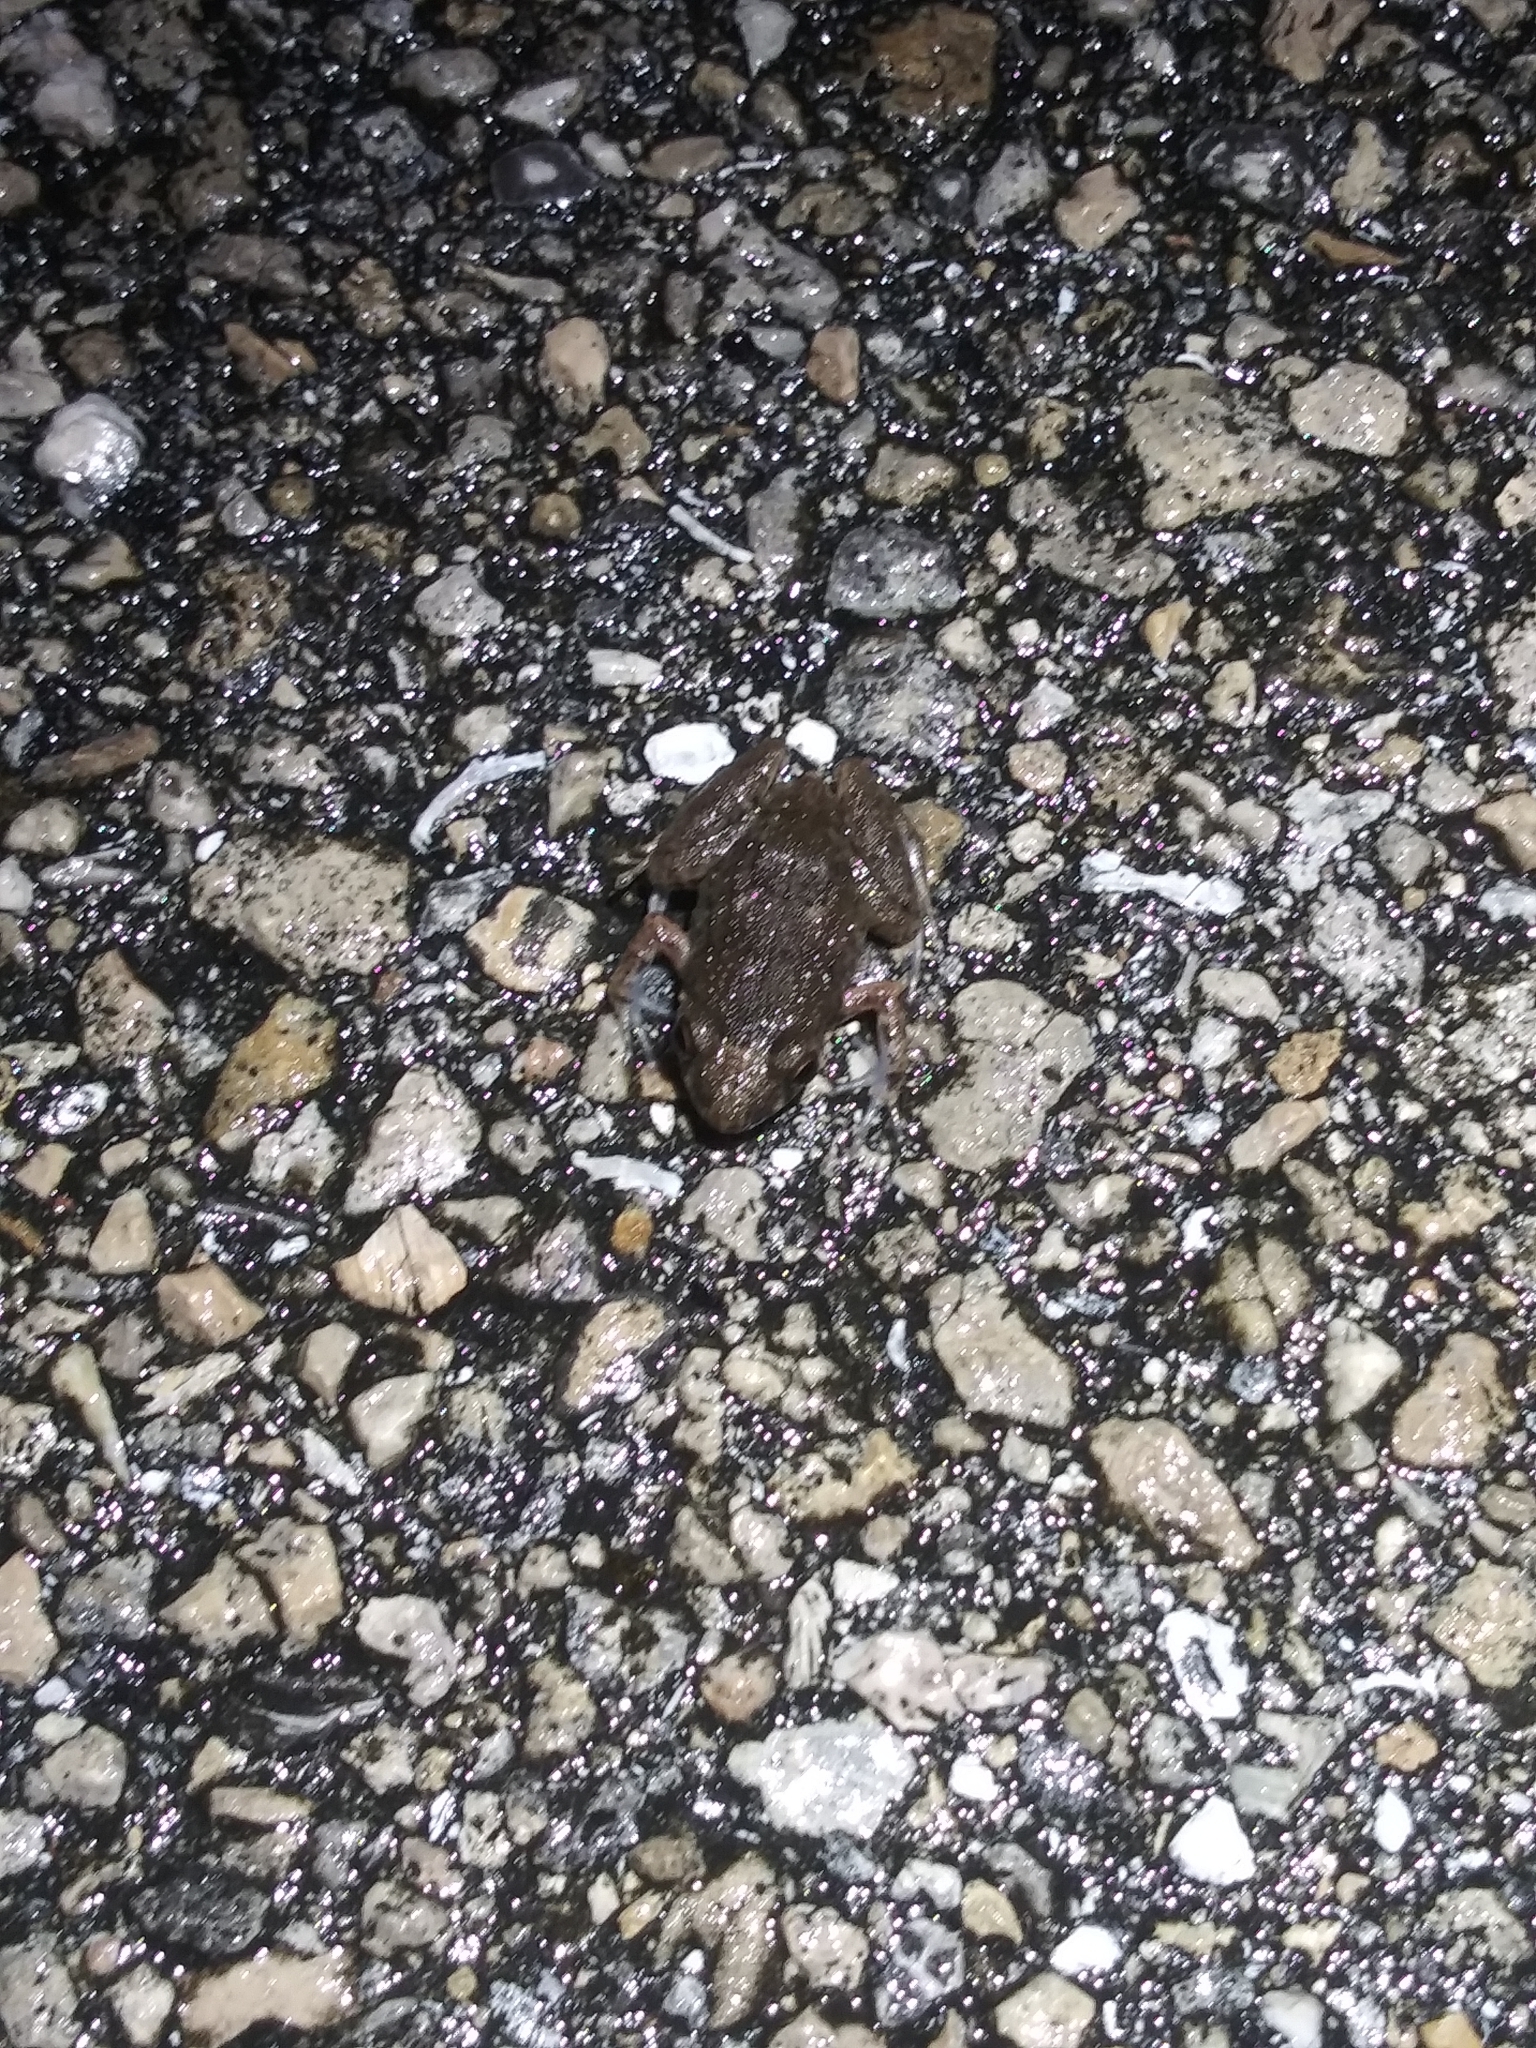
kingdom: Animalia
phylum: Chordata
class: Amphibia
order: Anura
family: Eleutherodactylidae
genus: Eleutherodactylus
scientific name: Eleutherodactylus planirostris
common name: Greenhouse frog
